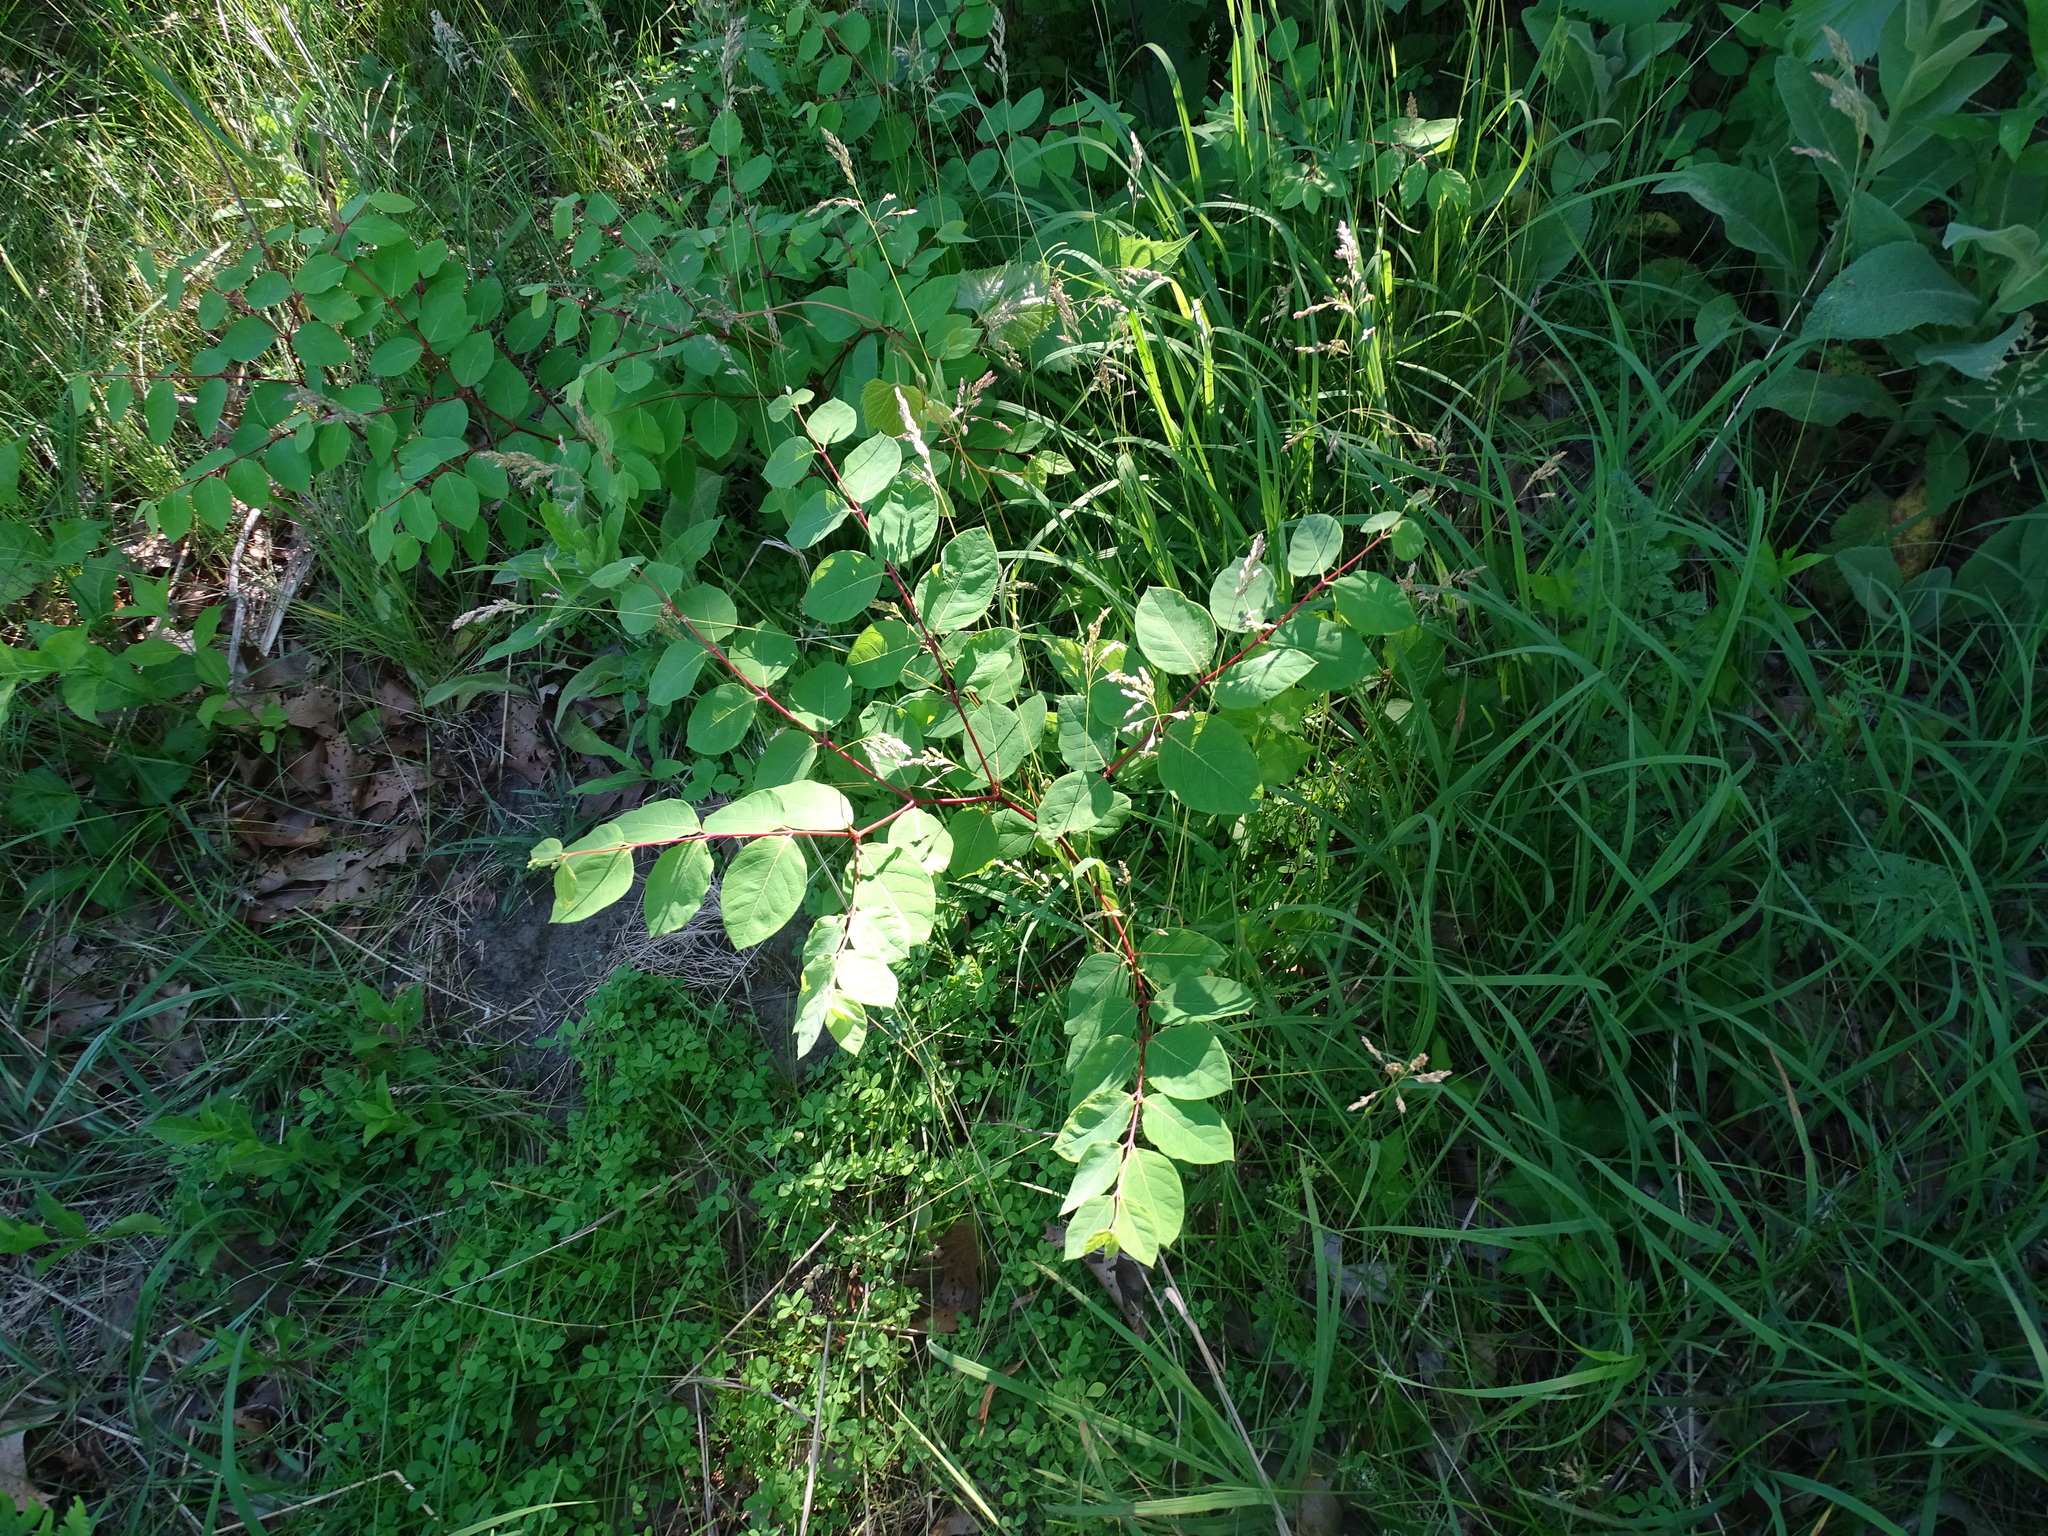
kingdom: Plantae
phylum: Tracheophyta
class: Magnoliopsida
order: Gentianales
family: Apocynaceae
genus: Apocynum
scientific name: Apocynum androsaemifolium
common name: Spreading dogbane
